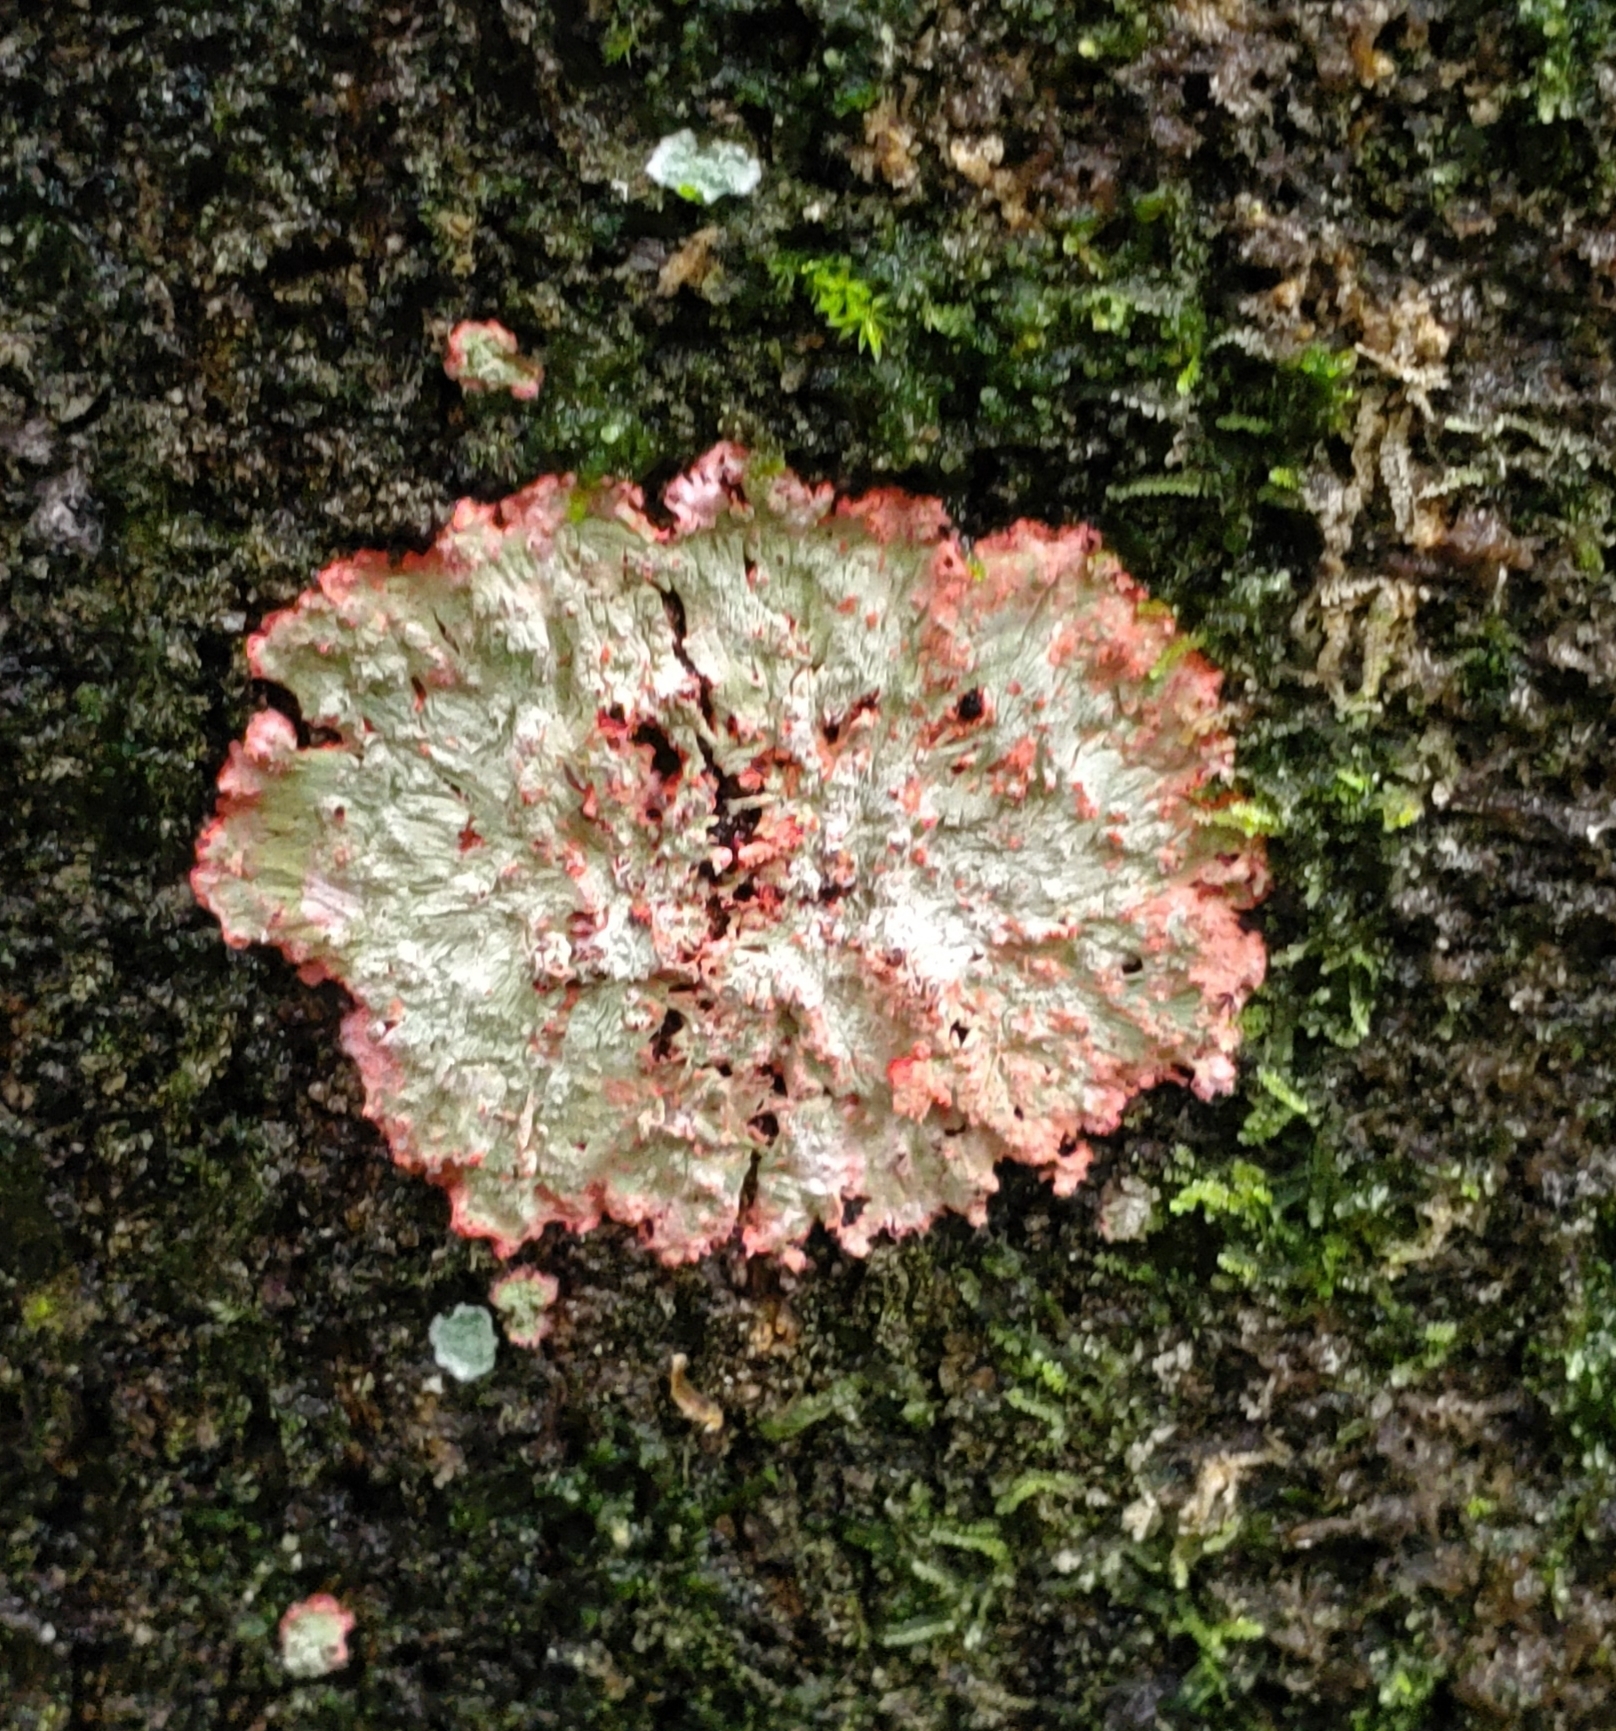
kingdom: Fungi
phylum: Ascomycota
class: Arthoniomycetes
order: Arthoniales
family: Arthoniaceae
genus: Herpothallon
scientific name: Herpothallon rubrocinctum
